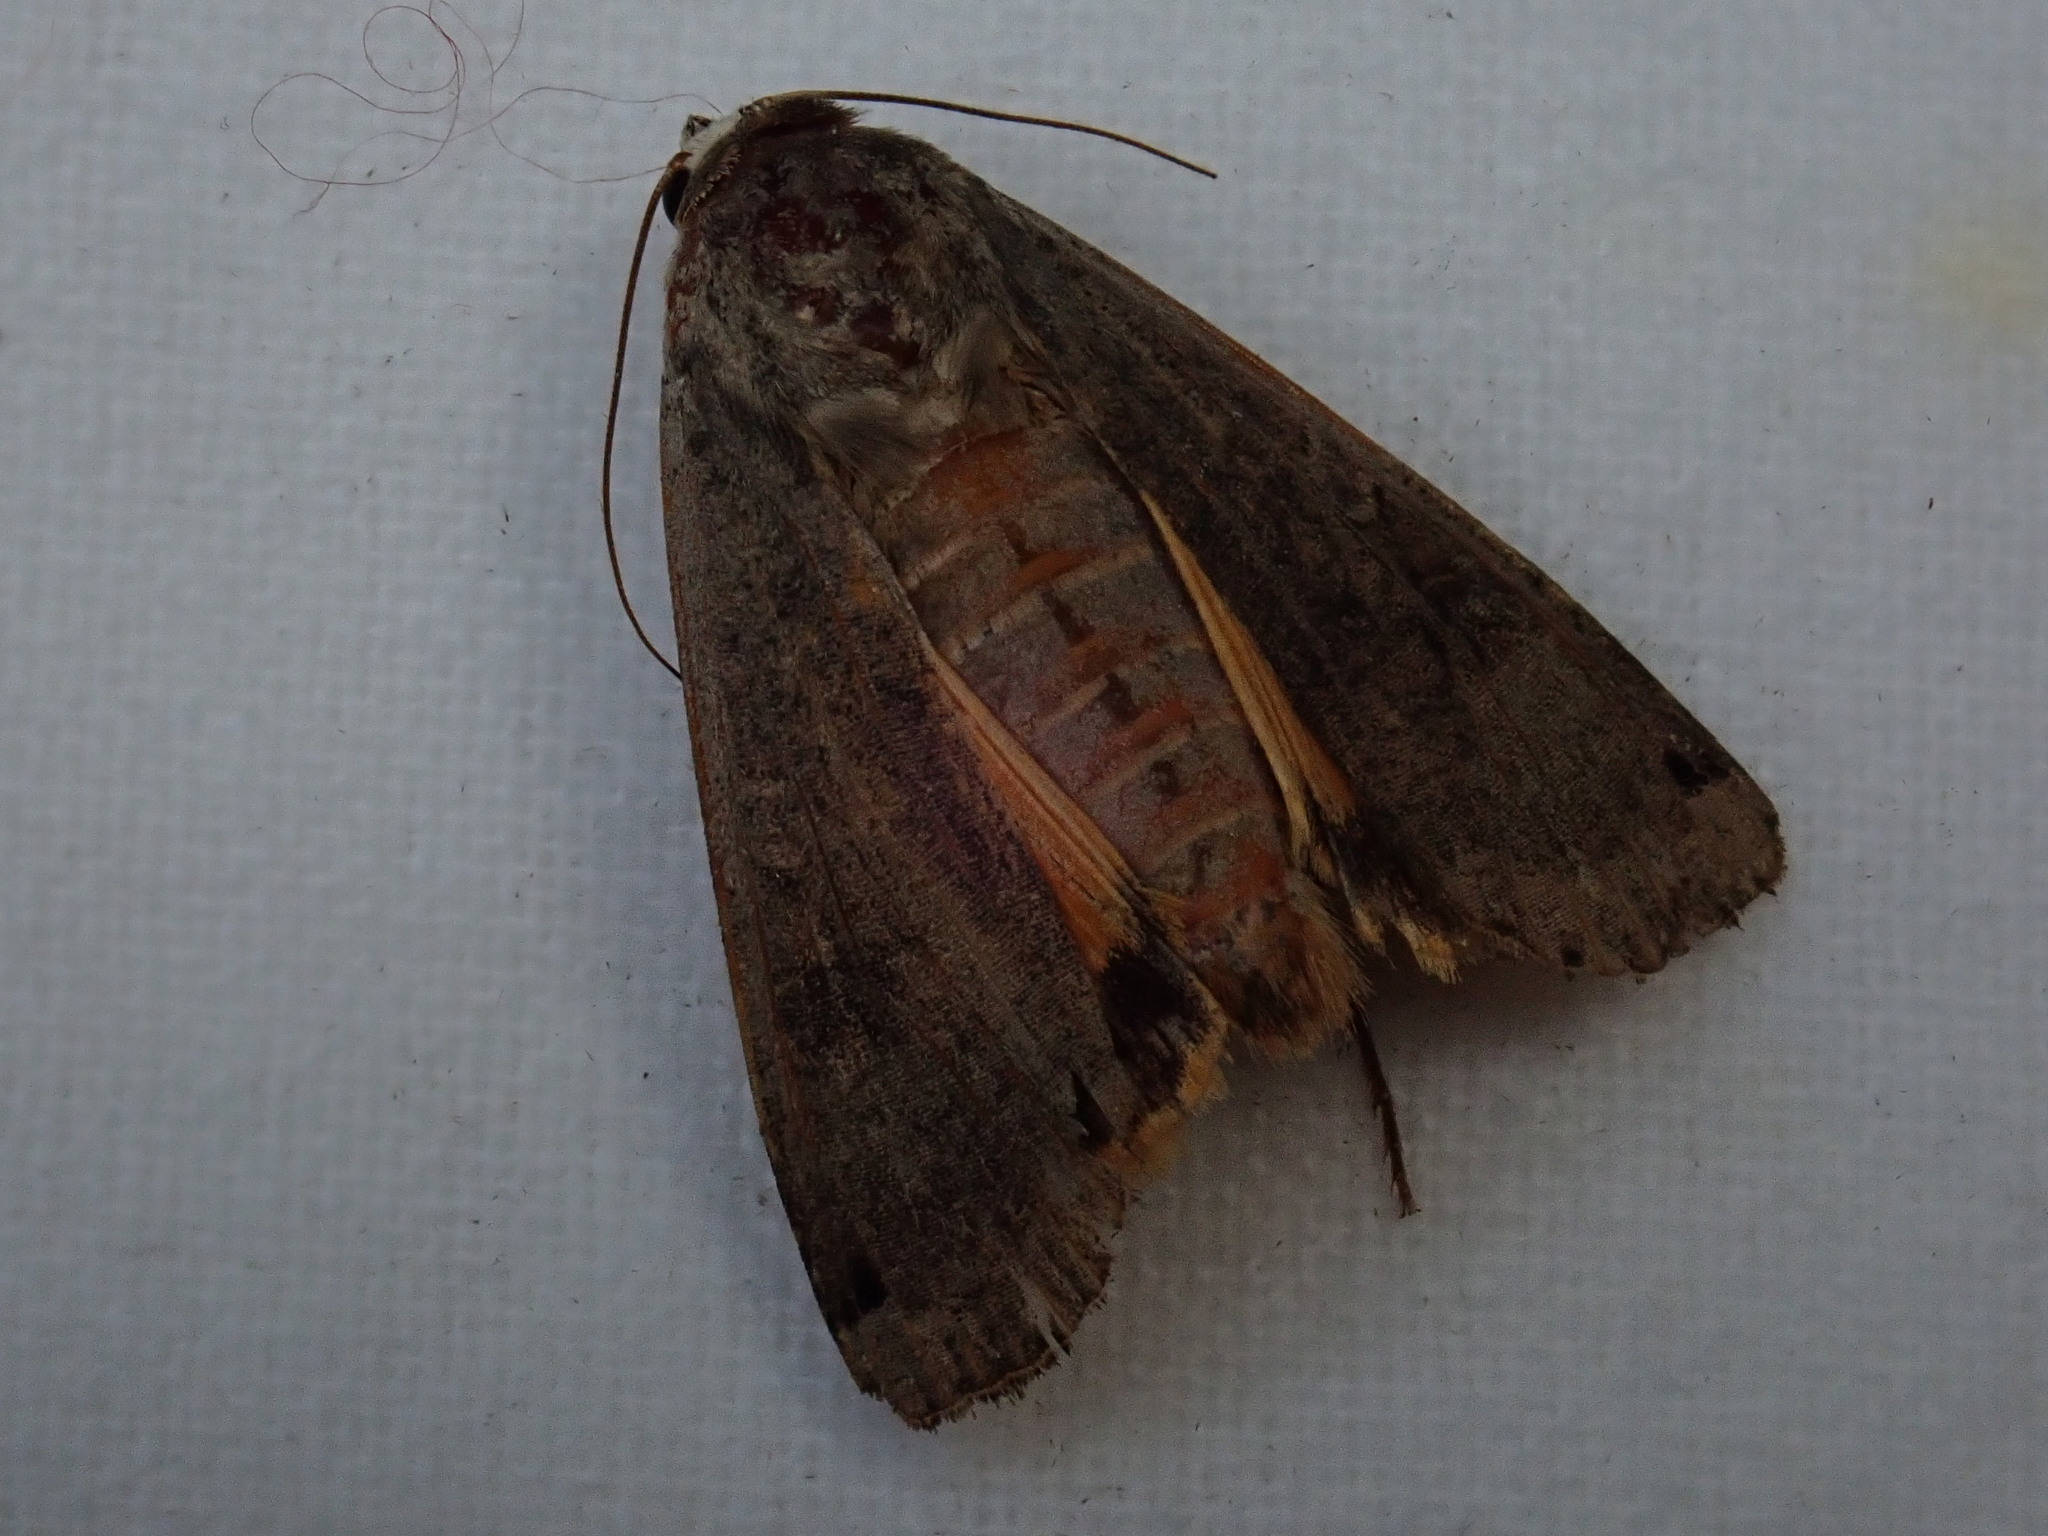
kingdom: Animalia
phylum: Arthropoda
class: Insecta
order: Lepidoptera
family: Noctuidae
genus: Noctua
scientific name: Noctua pronuba
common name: Large yellow underwing
